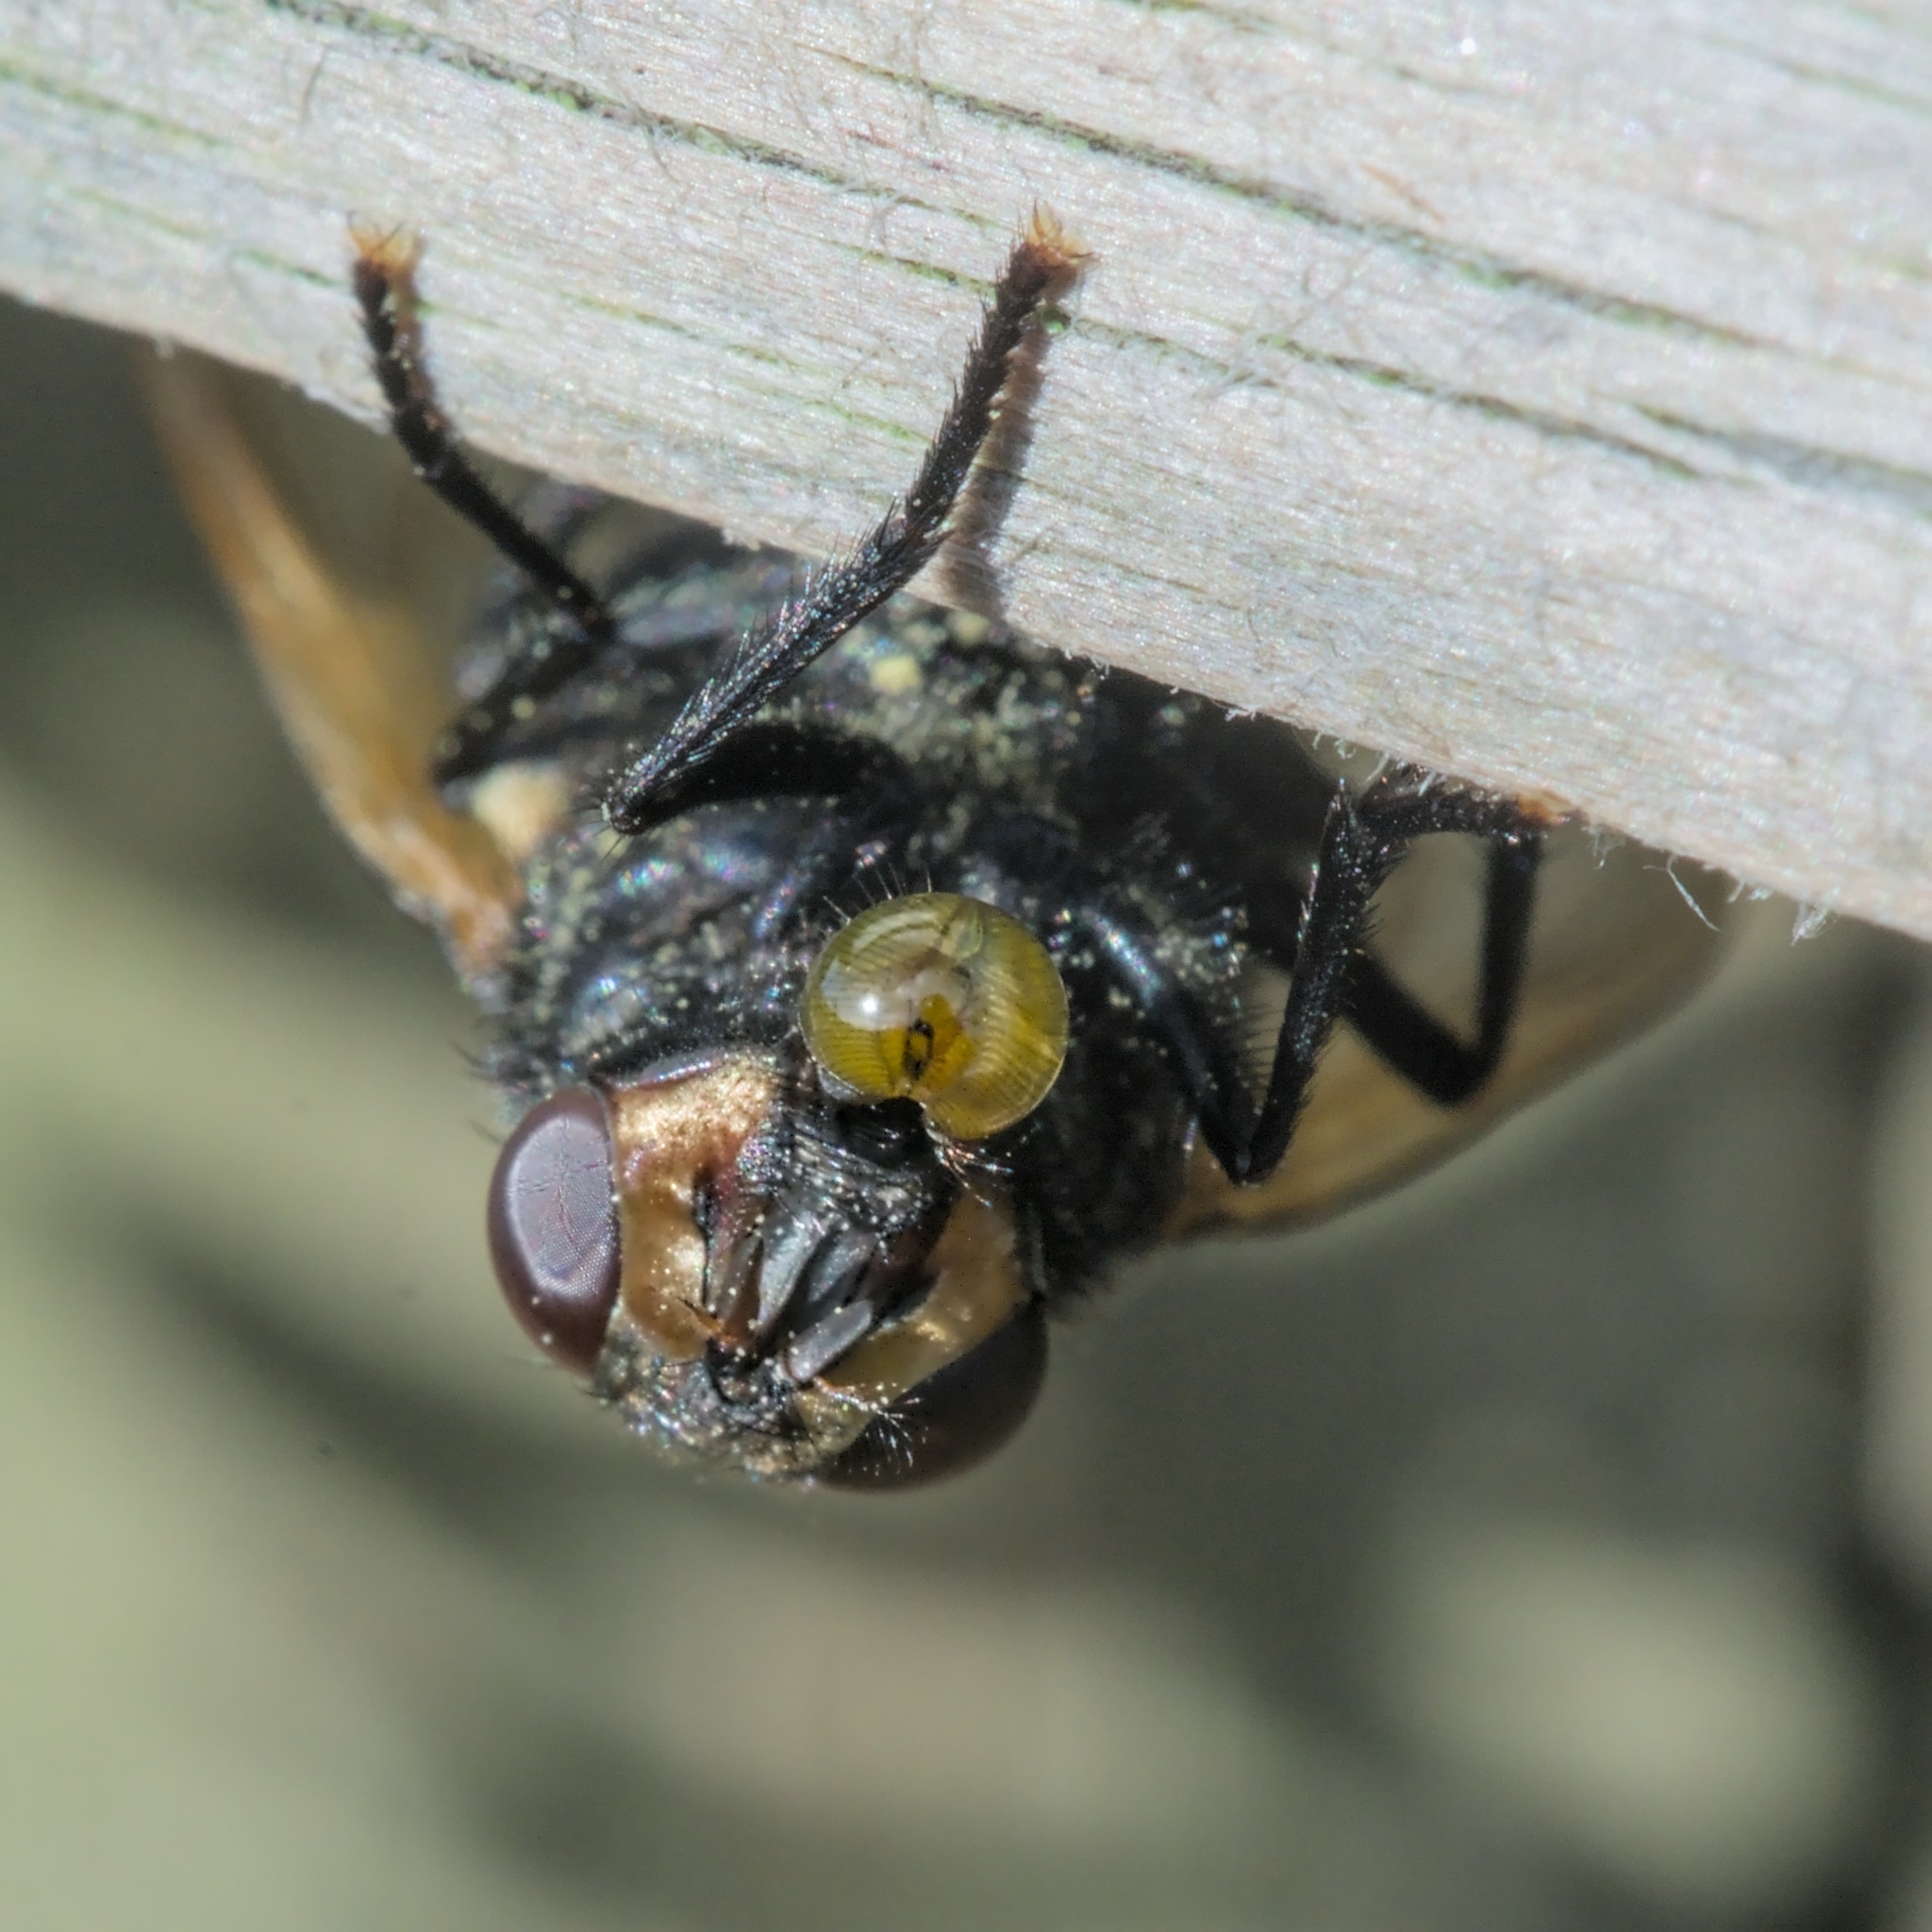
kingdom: Animalia
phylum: Arthropoda
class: Insecta
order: Diptera
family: Muscidae
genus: Mesembrina
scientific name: Mesembrina meridiana
